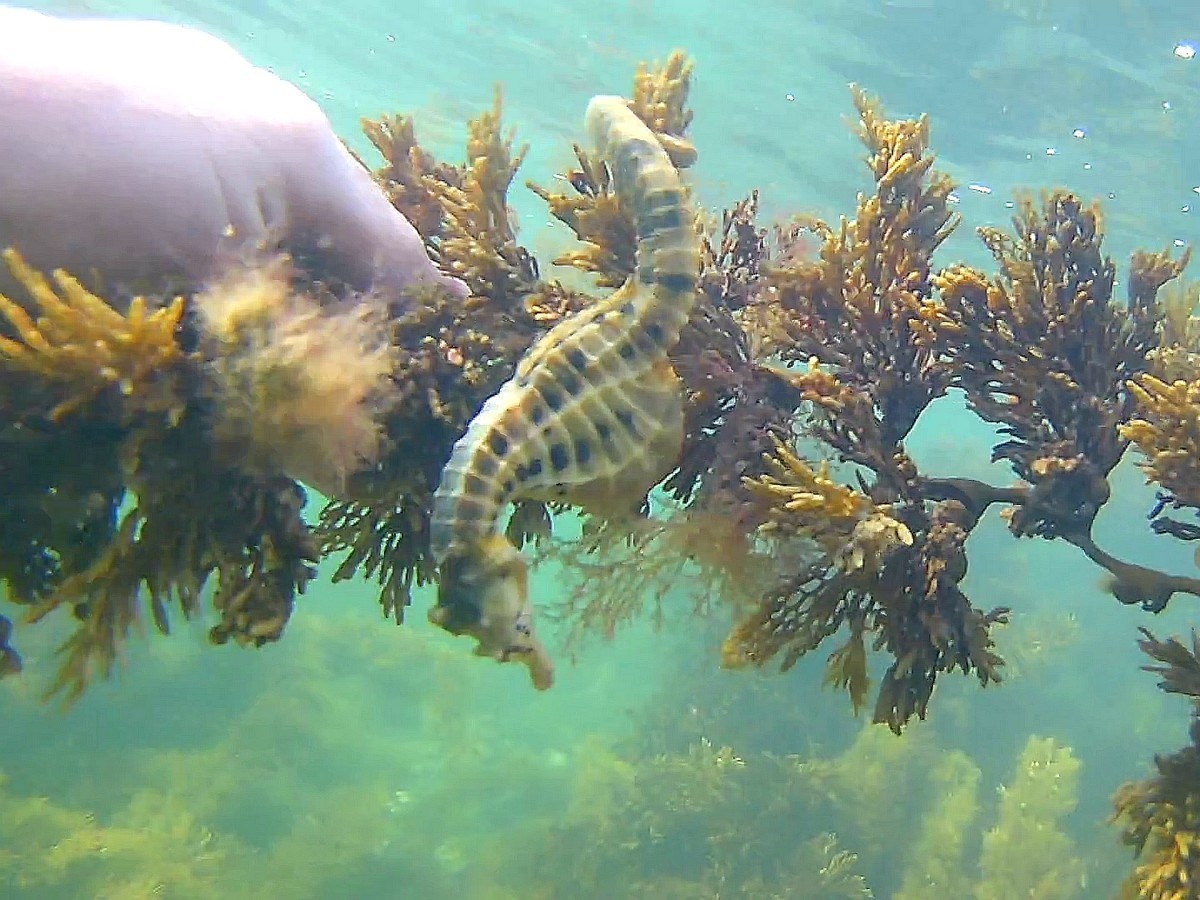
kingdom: Animalia
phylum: Chordata
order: Syngnathiformes
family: Syngnathidae
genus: Hippocampus
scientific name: Hippocampus abdominalis
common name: Big-belly seahorse
